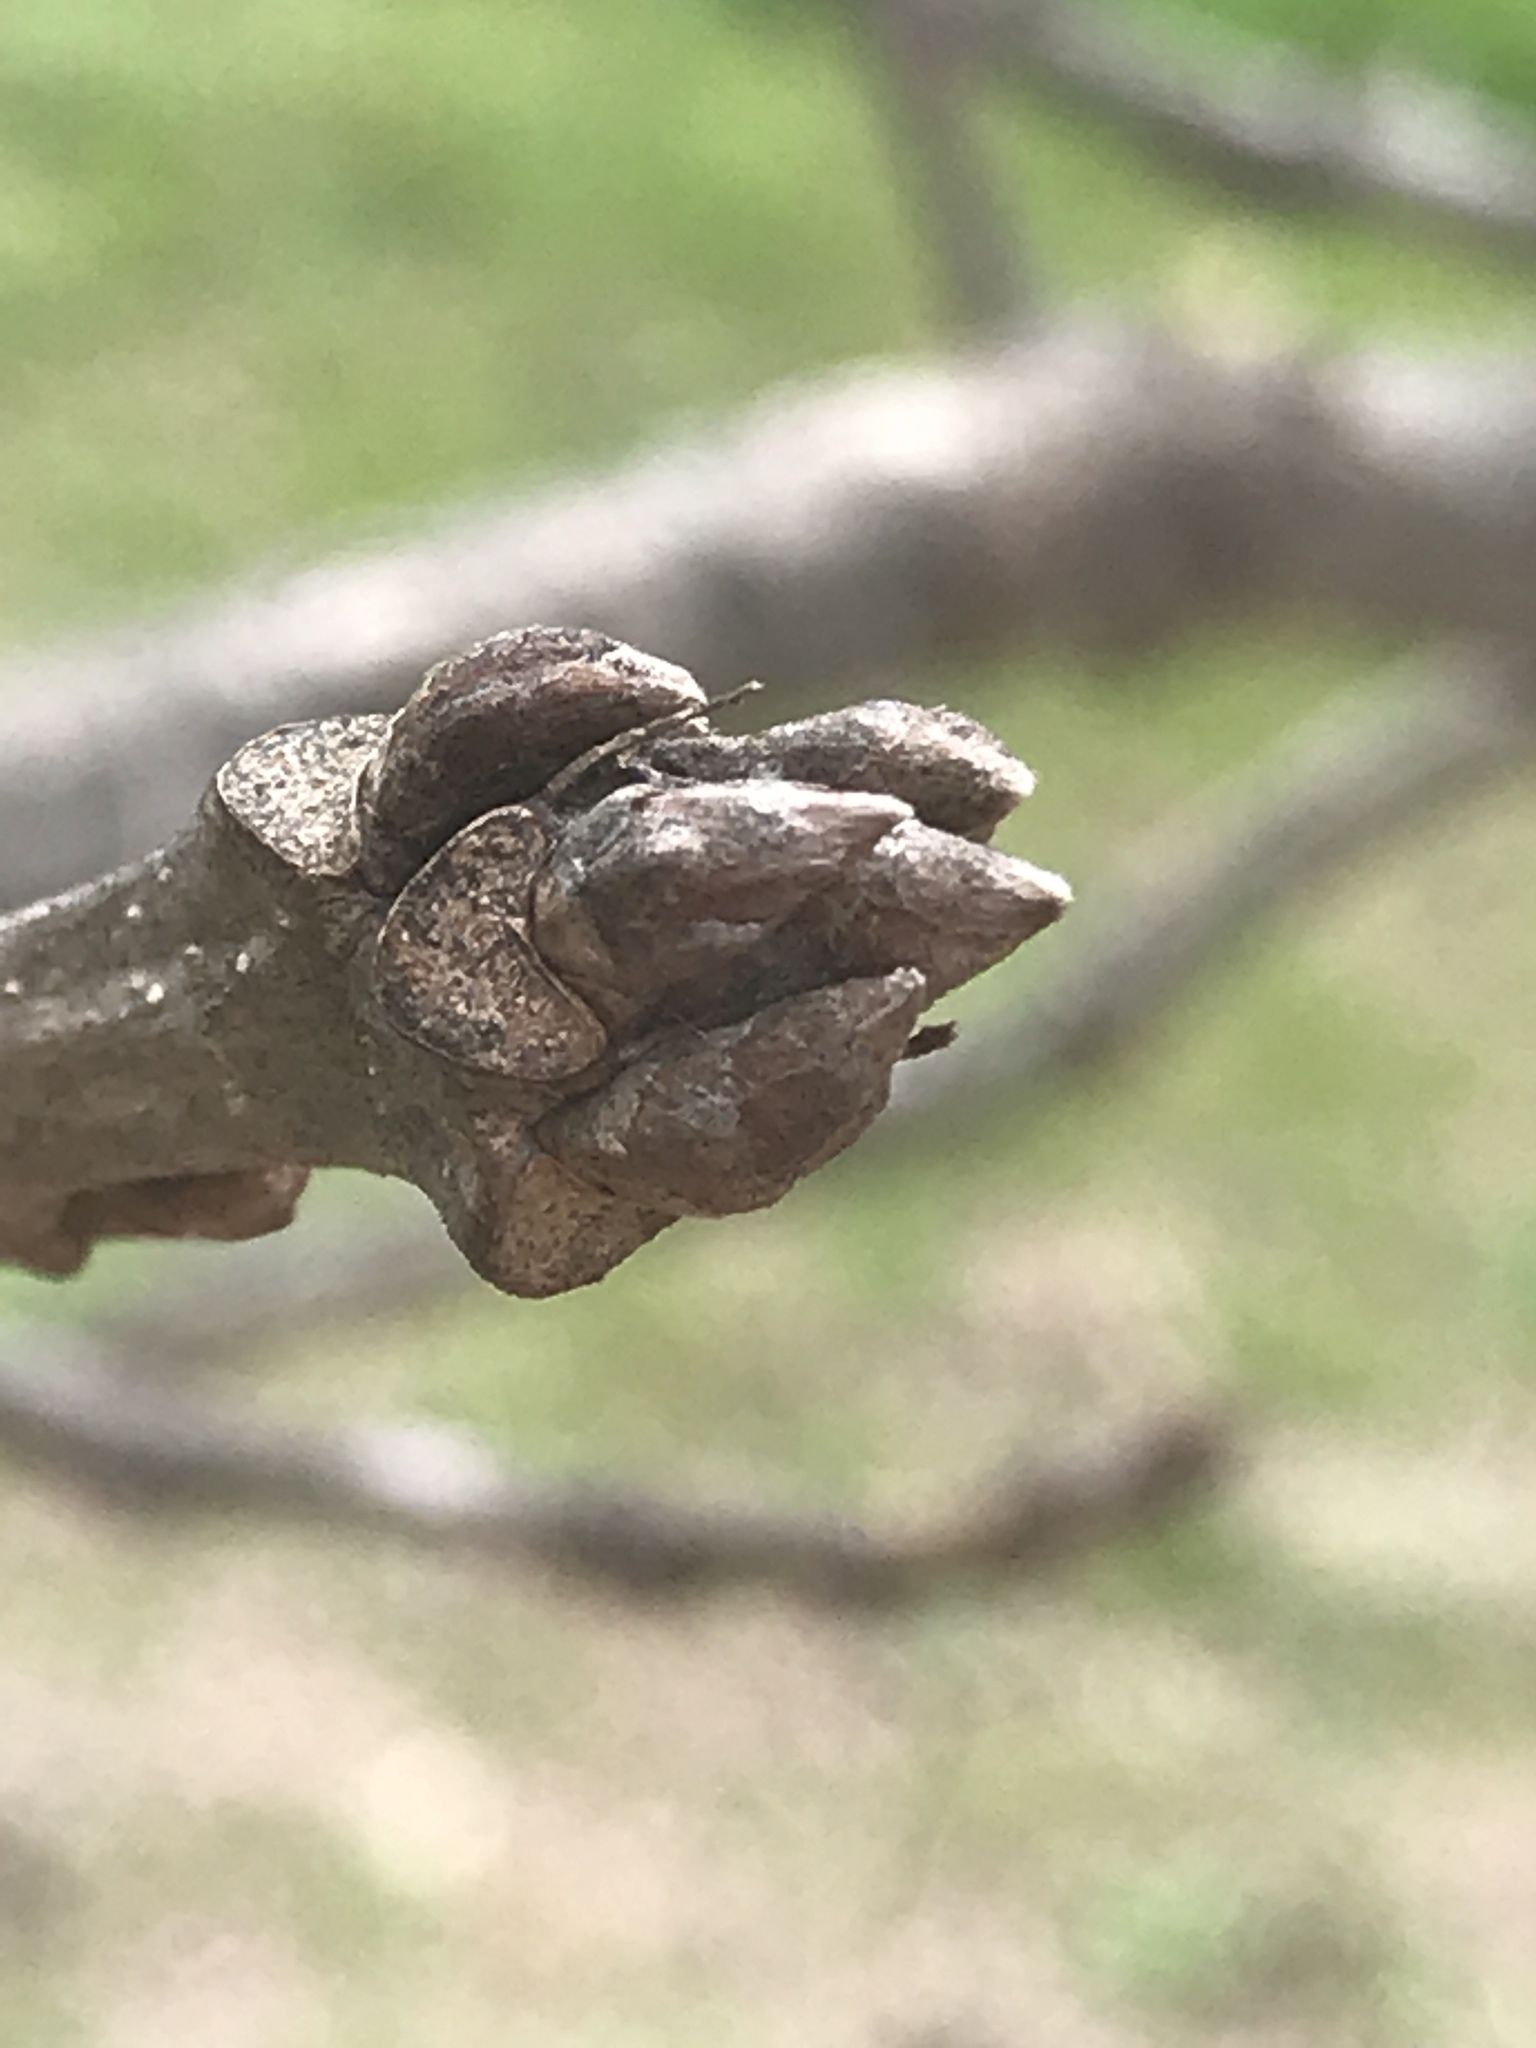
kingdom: Plantae
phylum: Tracheophyta
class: Magnoliopsida
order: Fagales
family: Fagaceae
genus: Quercus
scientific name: Quercus macrocarpa
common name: Bur oak
